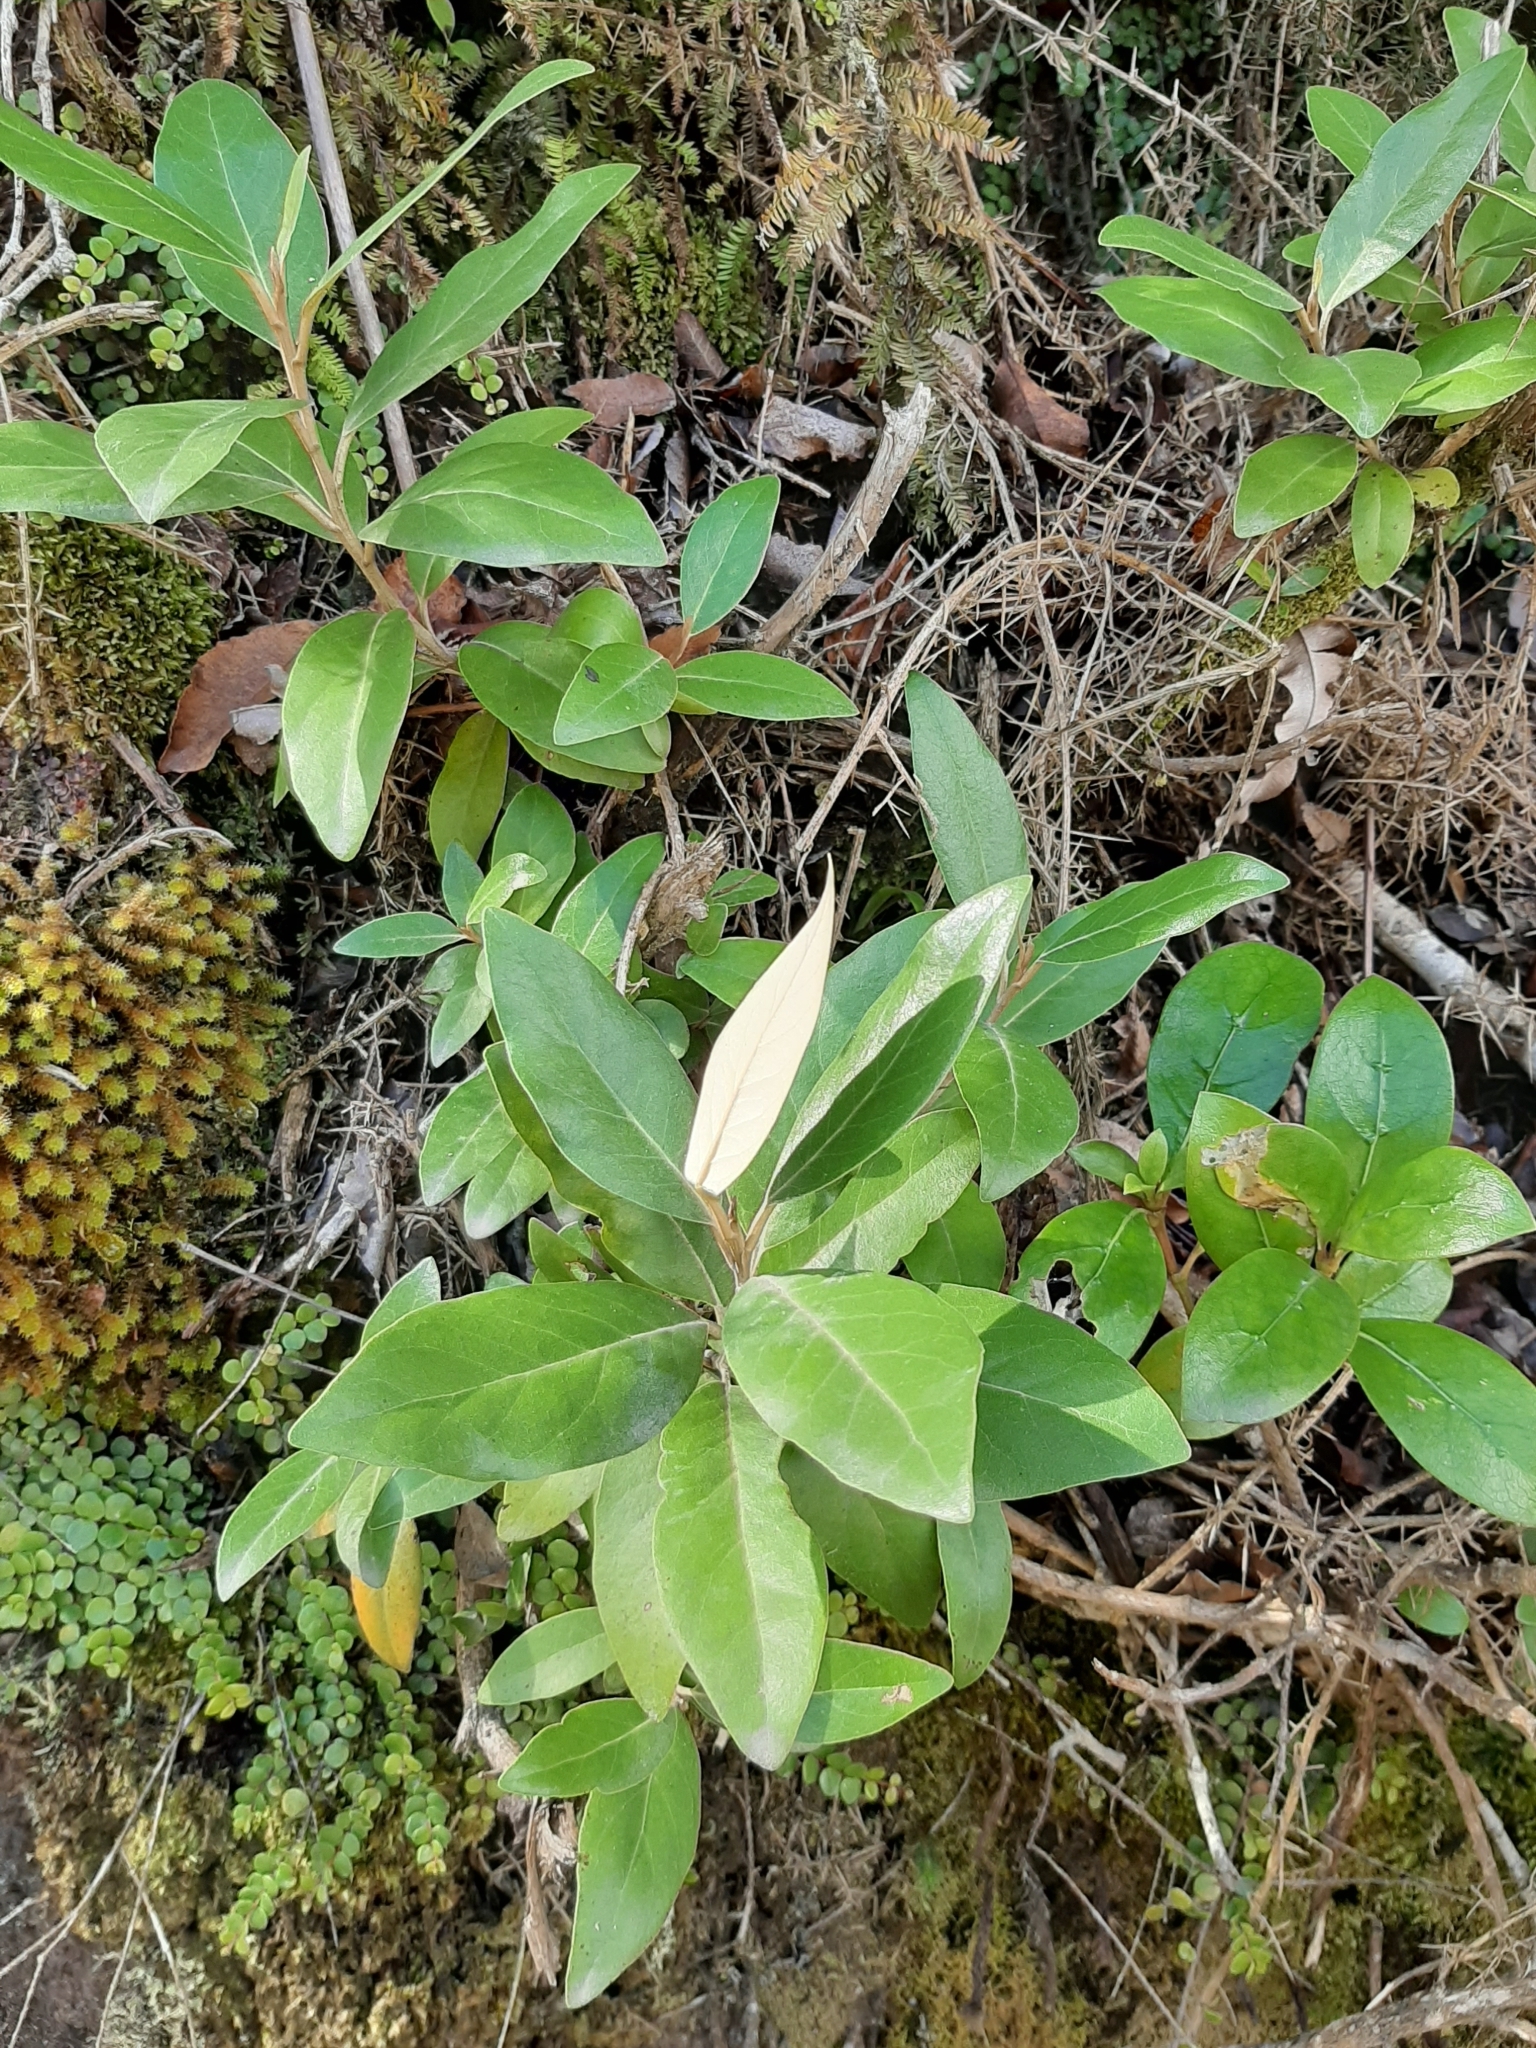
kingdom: Plantae
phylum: Tracheophyta
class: Magnoliopsida
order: Asterales
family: Asteraceae
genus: Olearia
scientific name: Olearia avicenniifolia
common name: Mangrove-leaf daisybush
